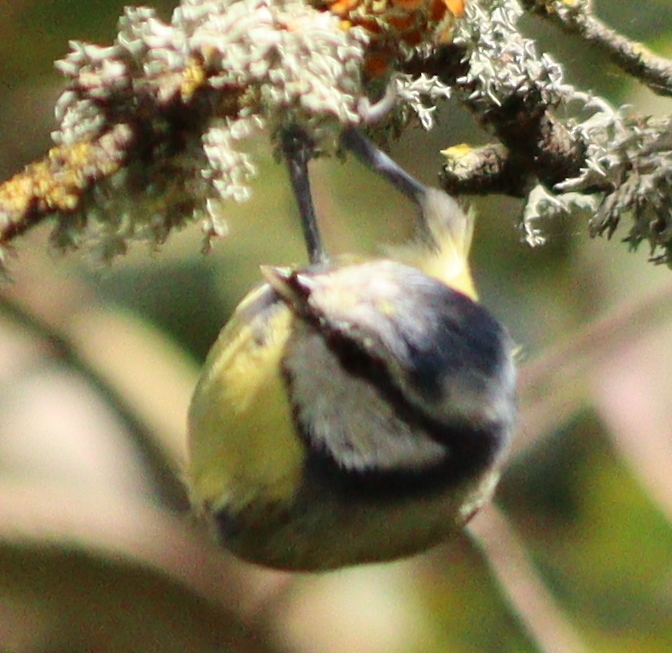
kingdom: Animalia
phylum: Chordata
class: Aves
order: Passeriformes
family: Paridae
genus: Cyanistes
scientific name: Cyanistes caeruleus
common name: Eurasian blue tit
